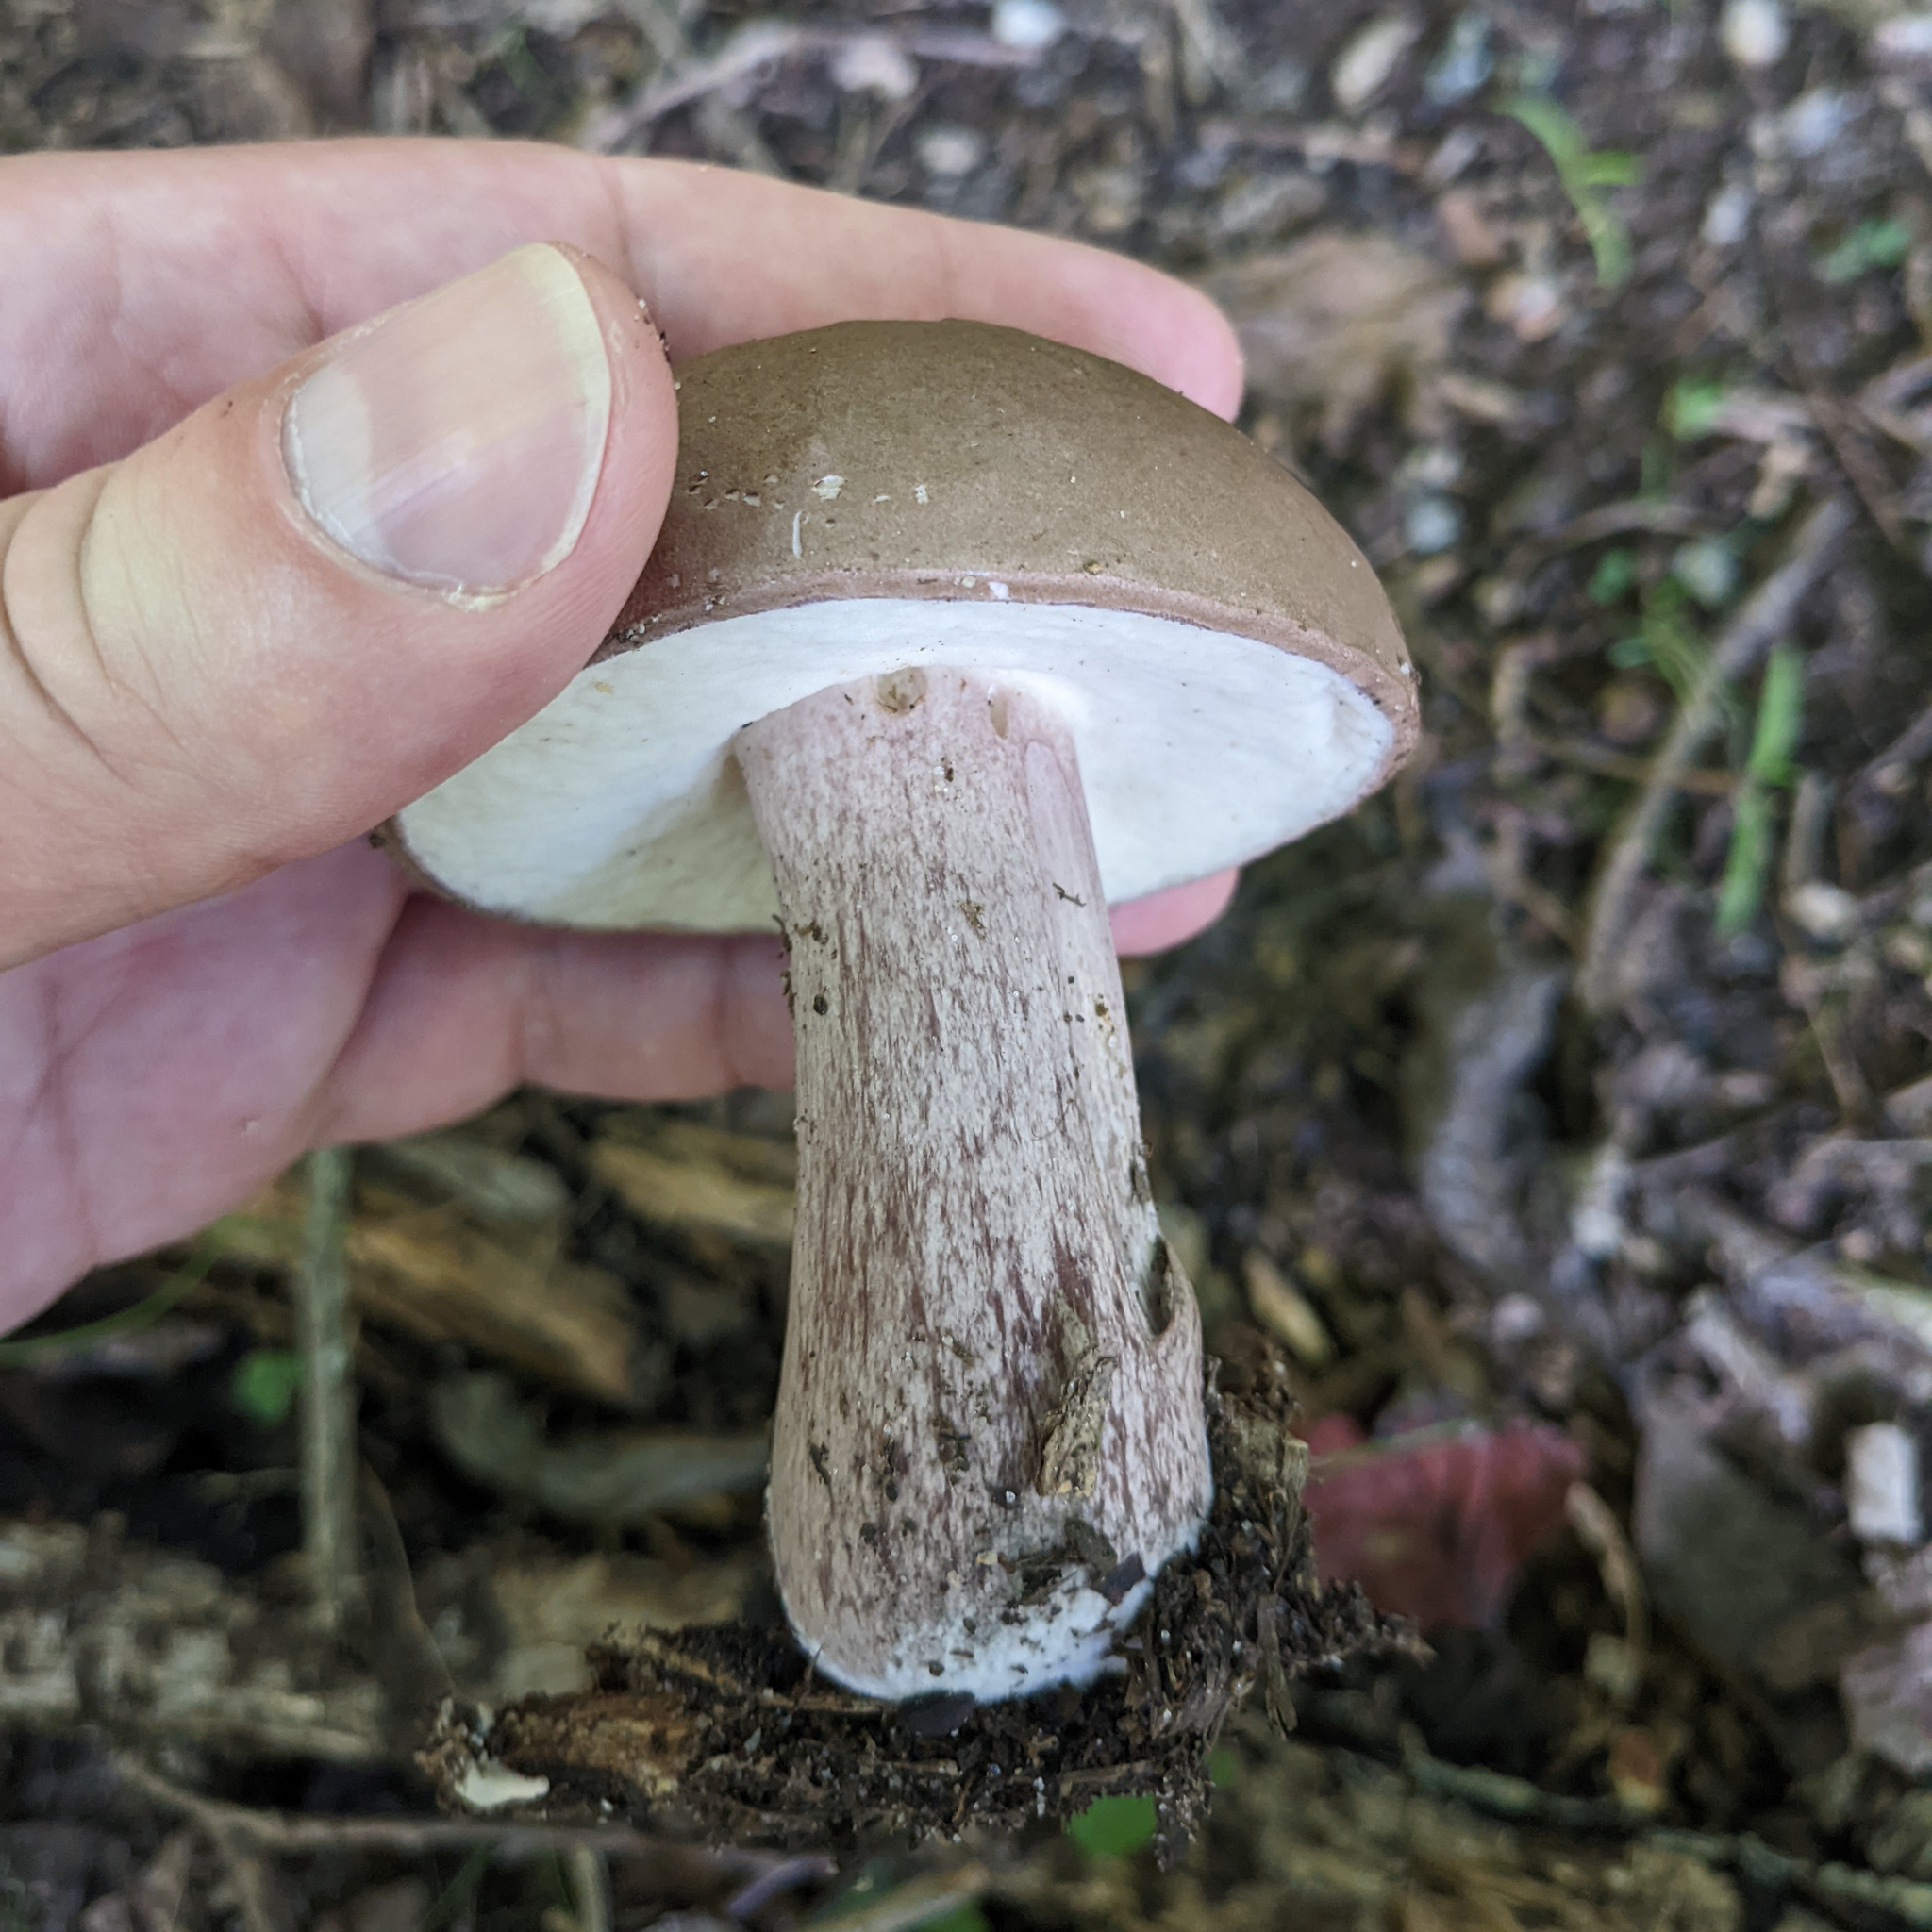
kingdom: Fungi
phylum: Basidiomycota
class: Agaricomycetes
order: Boletales
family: Boletaceae
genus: Tylopilus
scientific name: Tylopilus plumbeoviolaceus
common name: Violet gray bolete
